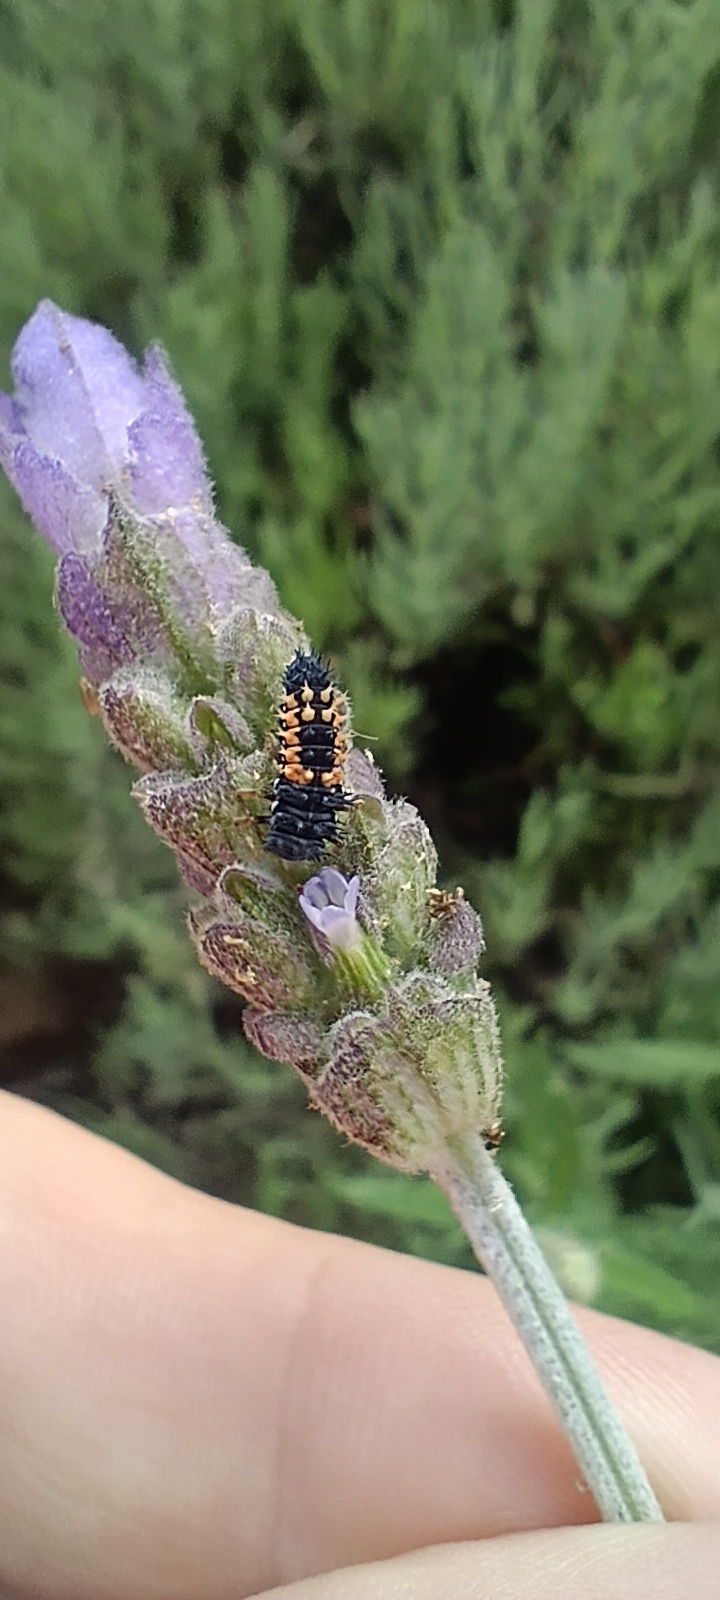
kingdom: Animalia
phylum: Arthropoda
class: Insecta
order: Coleoptera
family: Coccinellidae
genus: Harmonia
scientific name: Harmonia axyridis
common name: Harlequin ladybird
